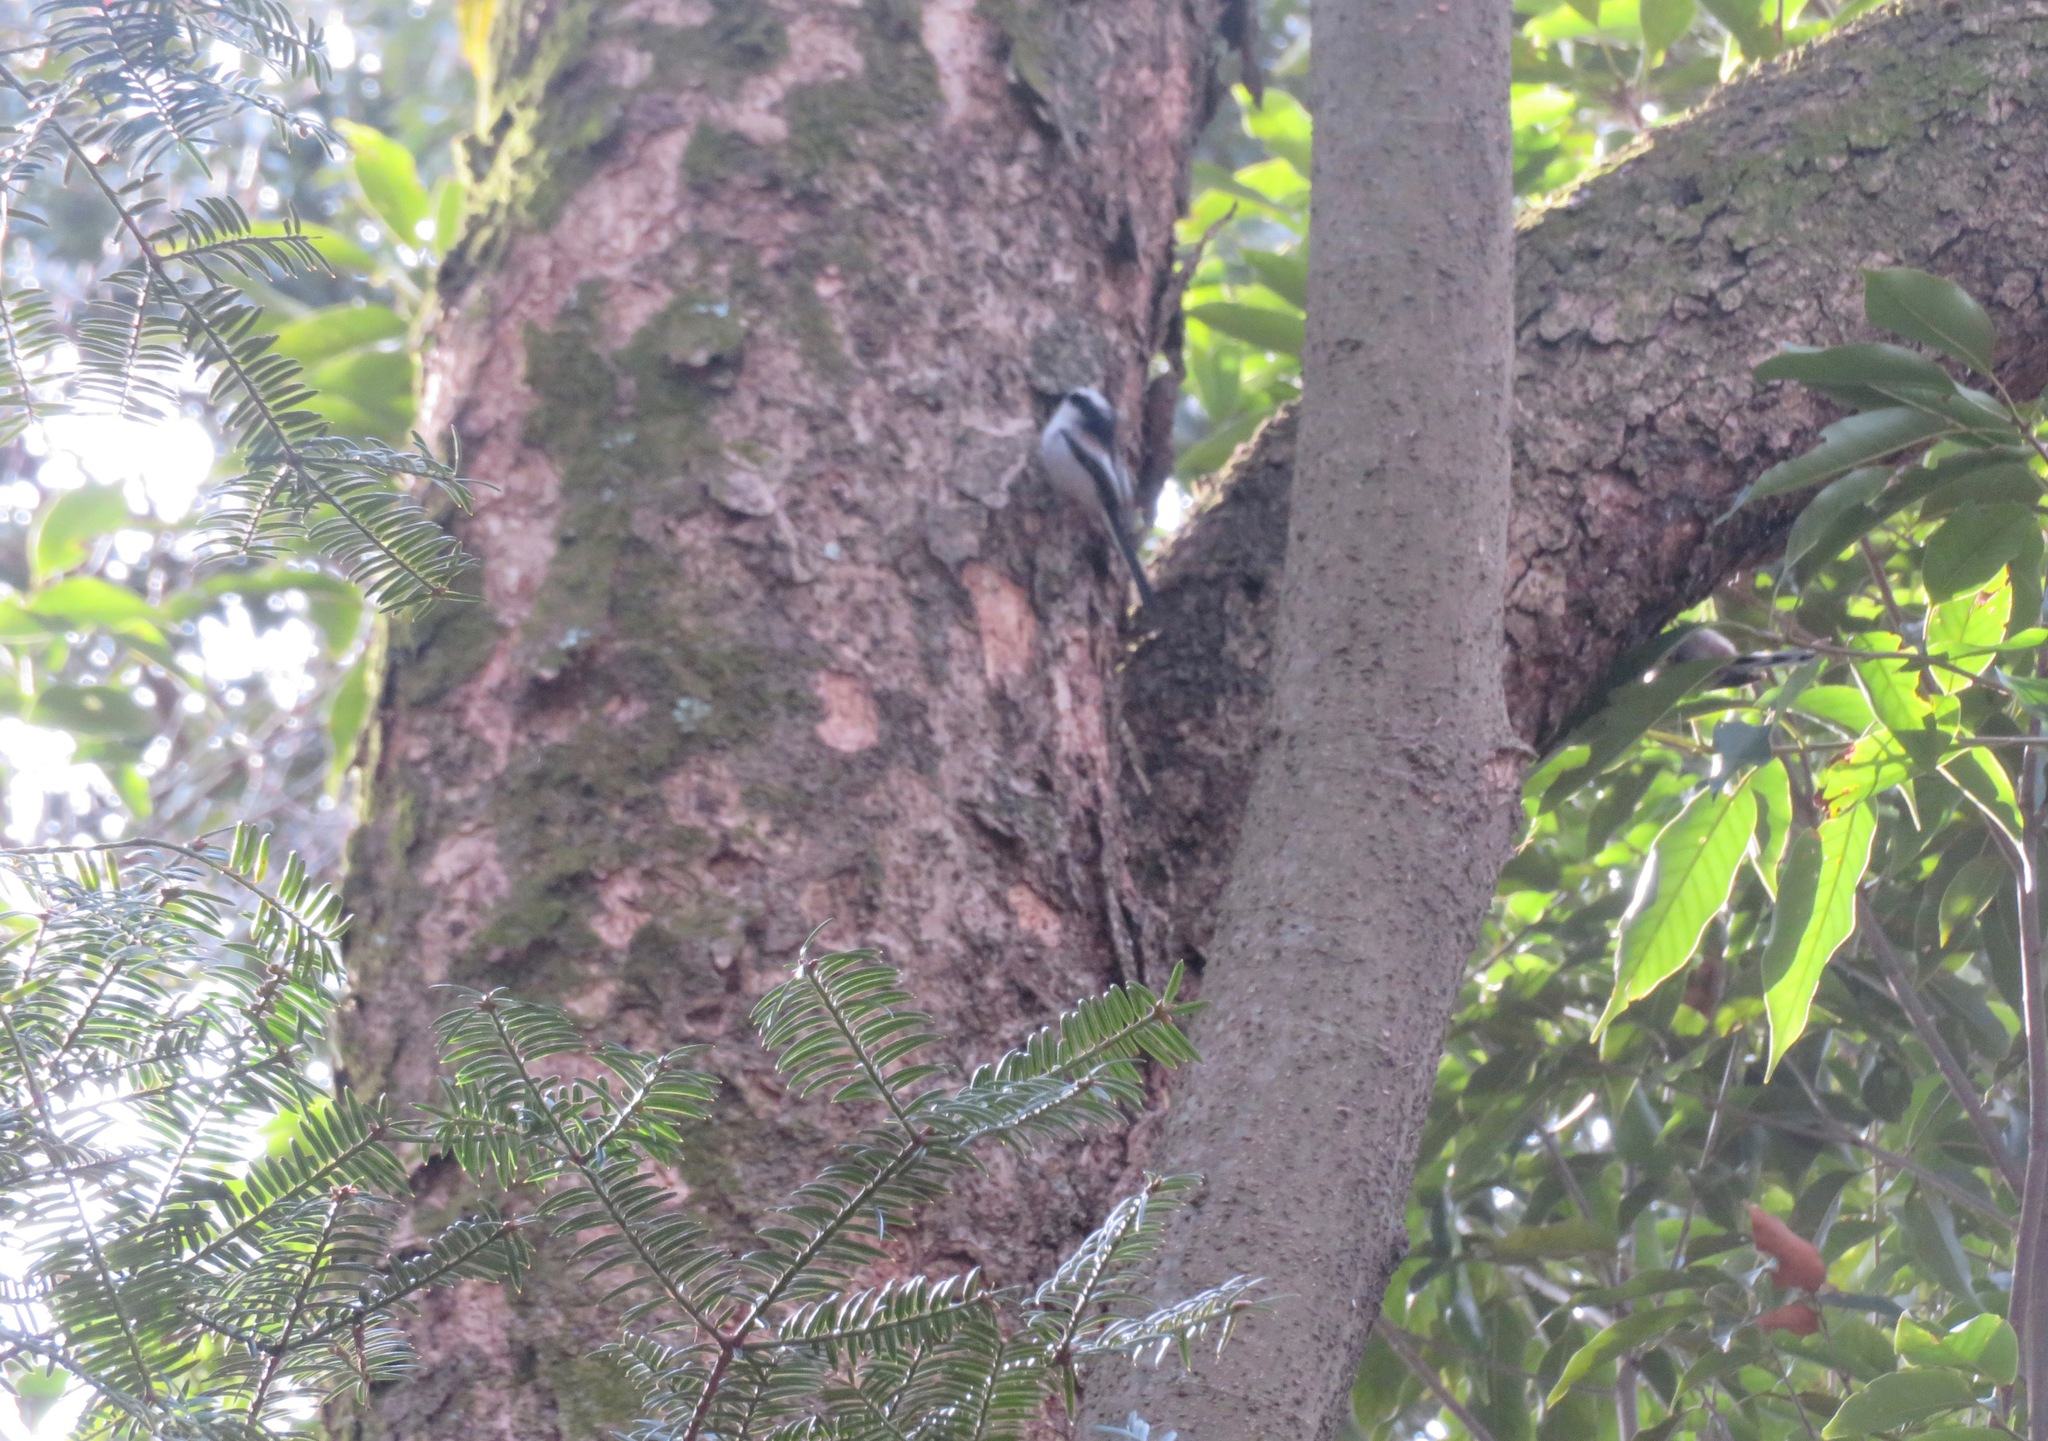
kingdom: Animalia
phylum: Chordata
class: Aves
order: Passeriformes
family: Aegithalidae
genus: Aegithalos
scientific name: Aegithalos caudatus
